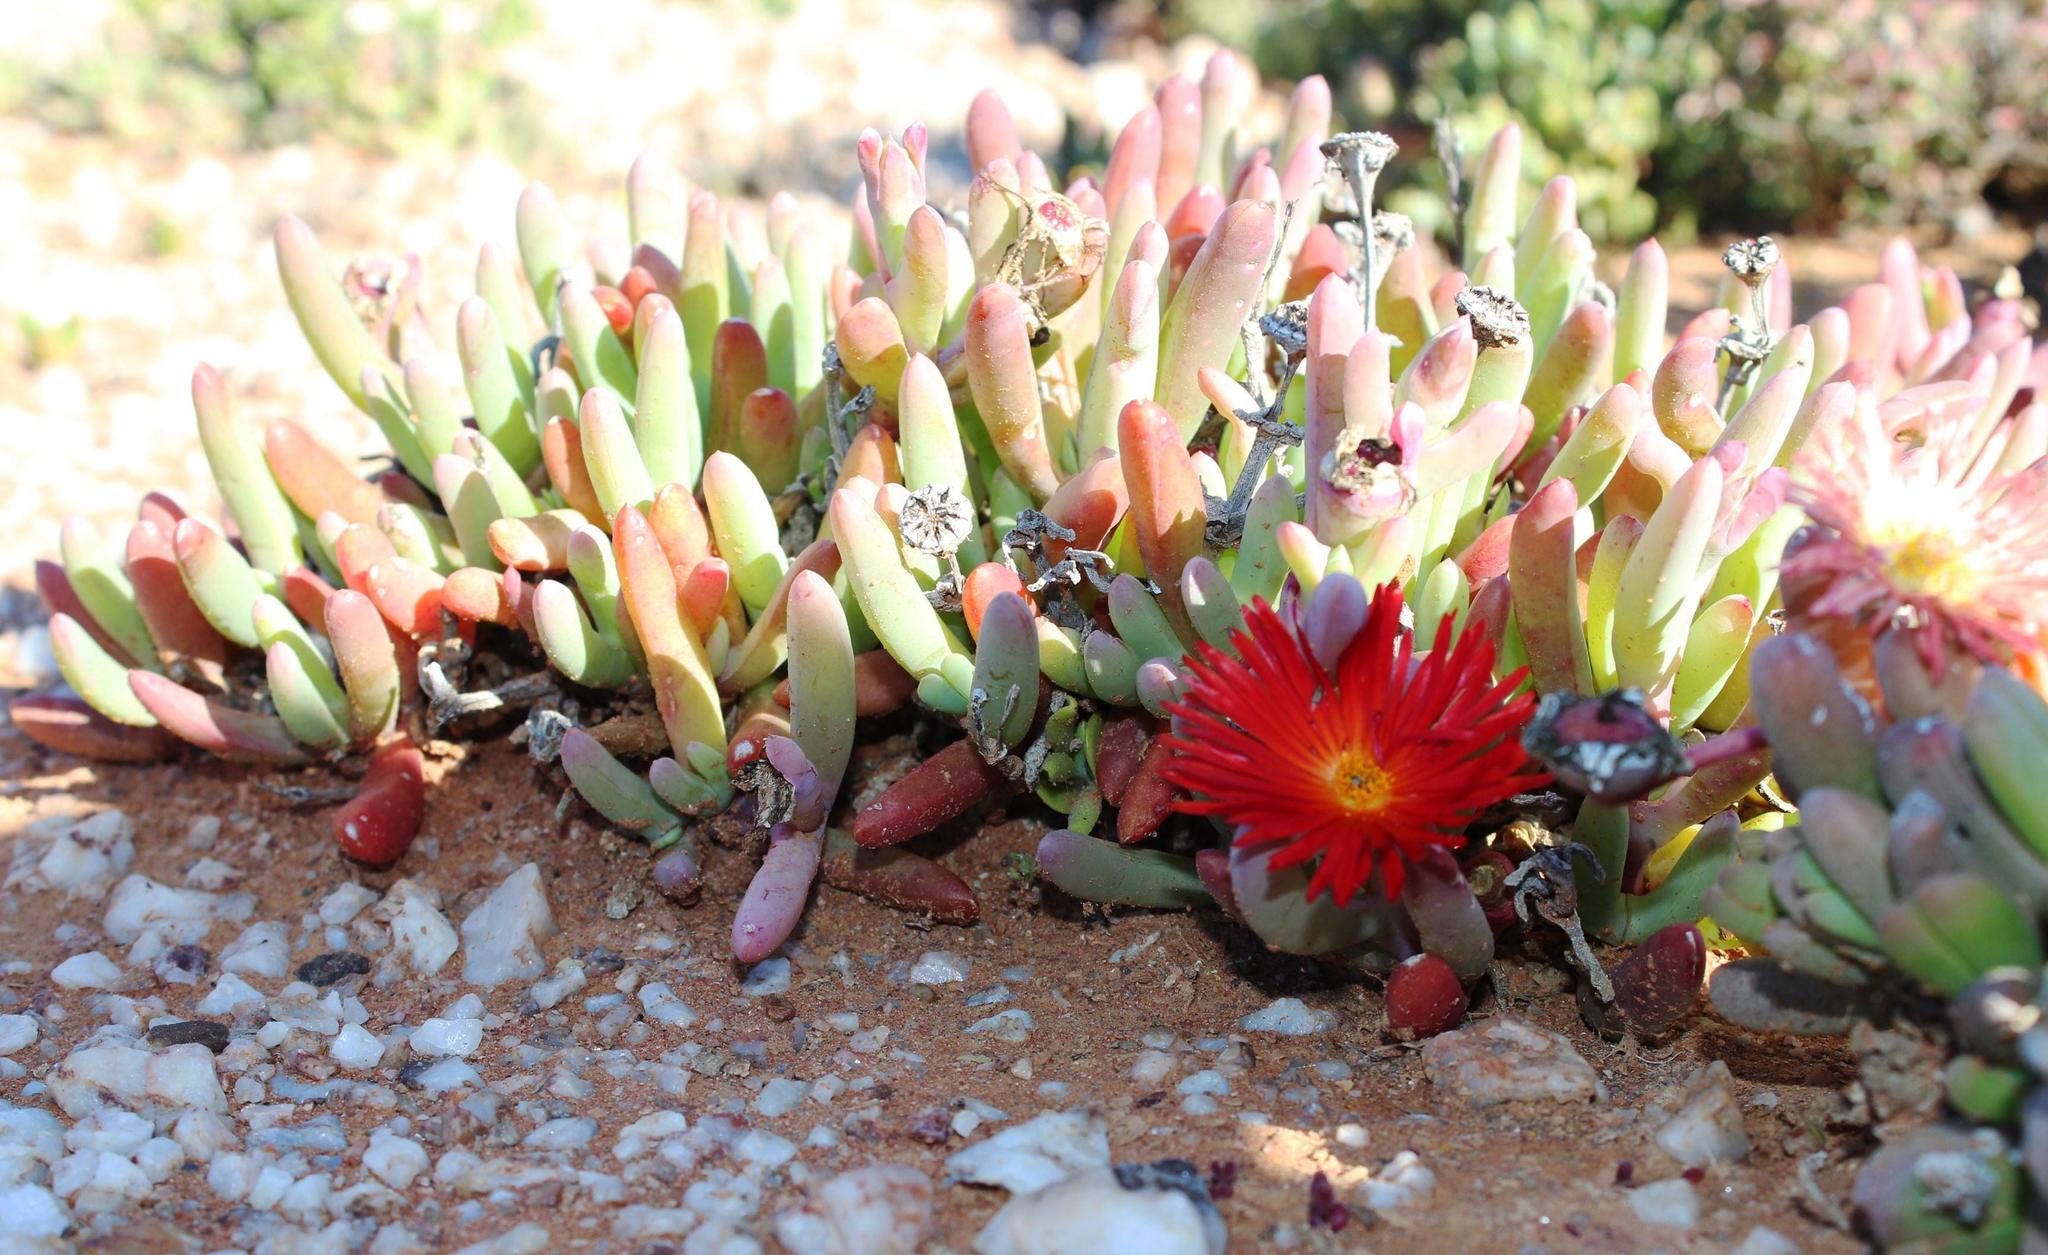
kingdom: Plantae
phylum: Tracheophyta
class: Magnoliopsida
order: Caryophyllales
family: Aizoaceae
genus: Malephora
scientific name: Malephora purpureocrocea
